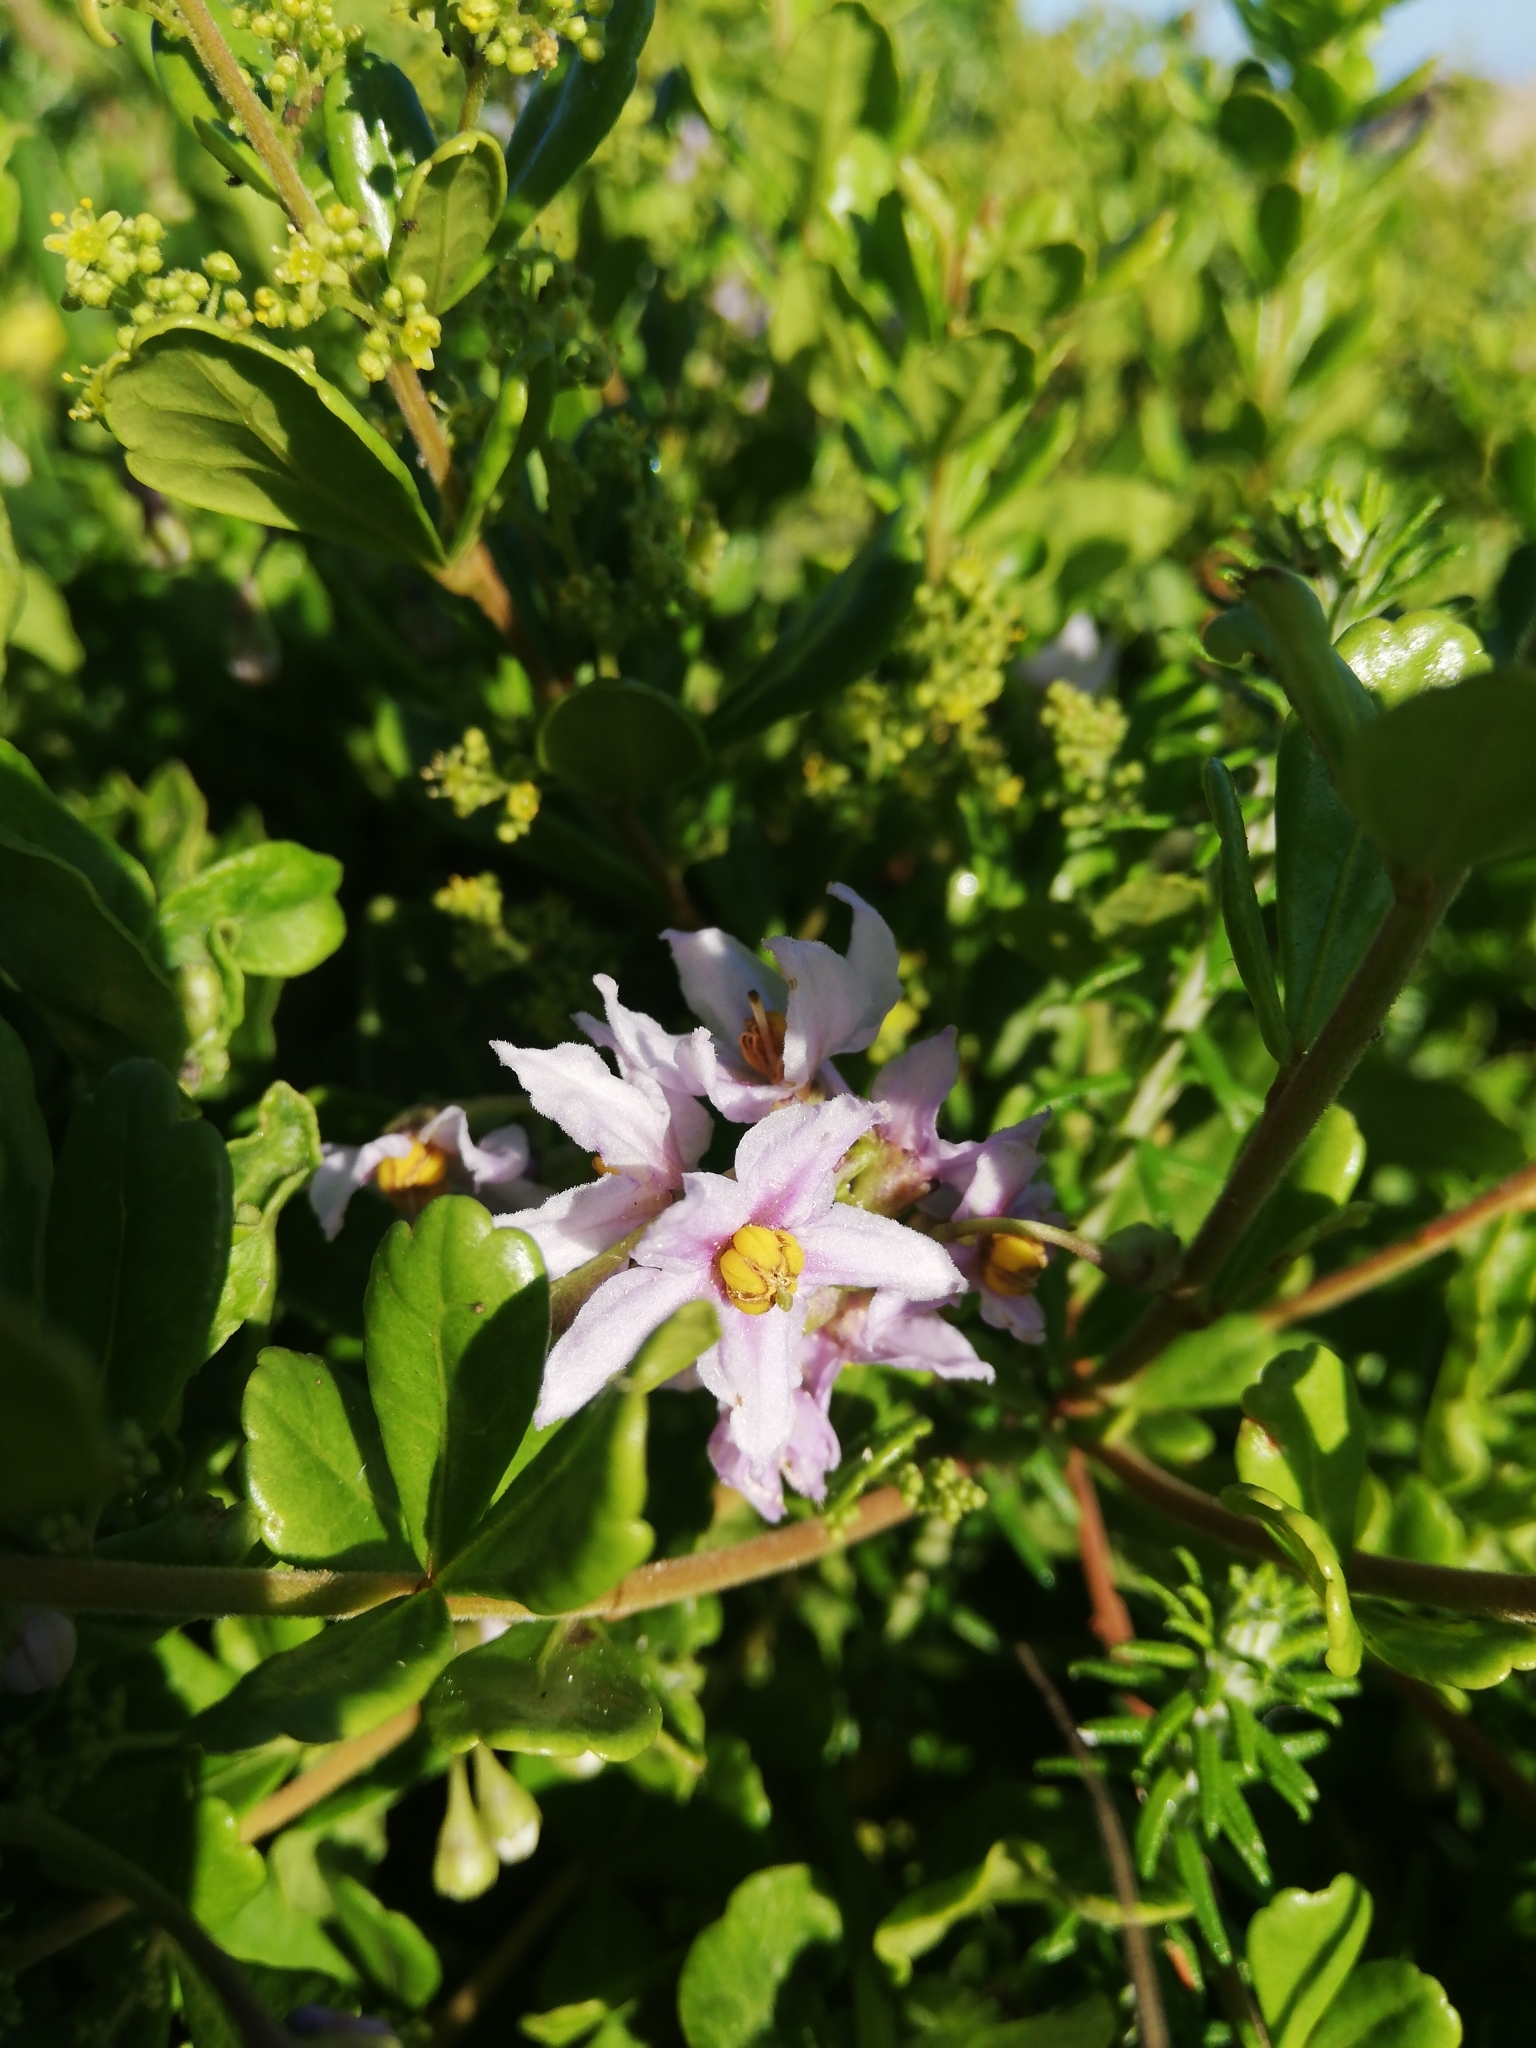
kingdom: Plantae
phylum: Tracheophyta
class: Magnoliopsida
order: Solanales
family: Solanaceae
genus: Solanum
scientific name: Solanum africanum
